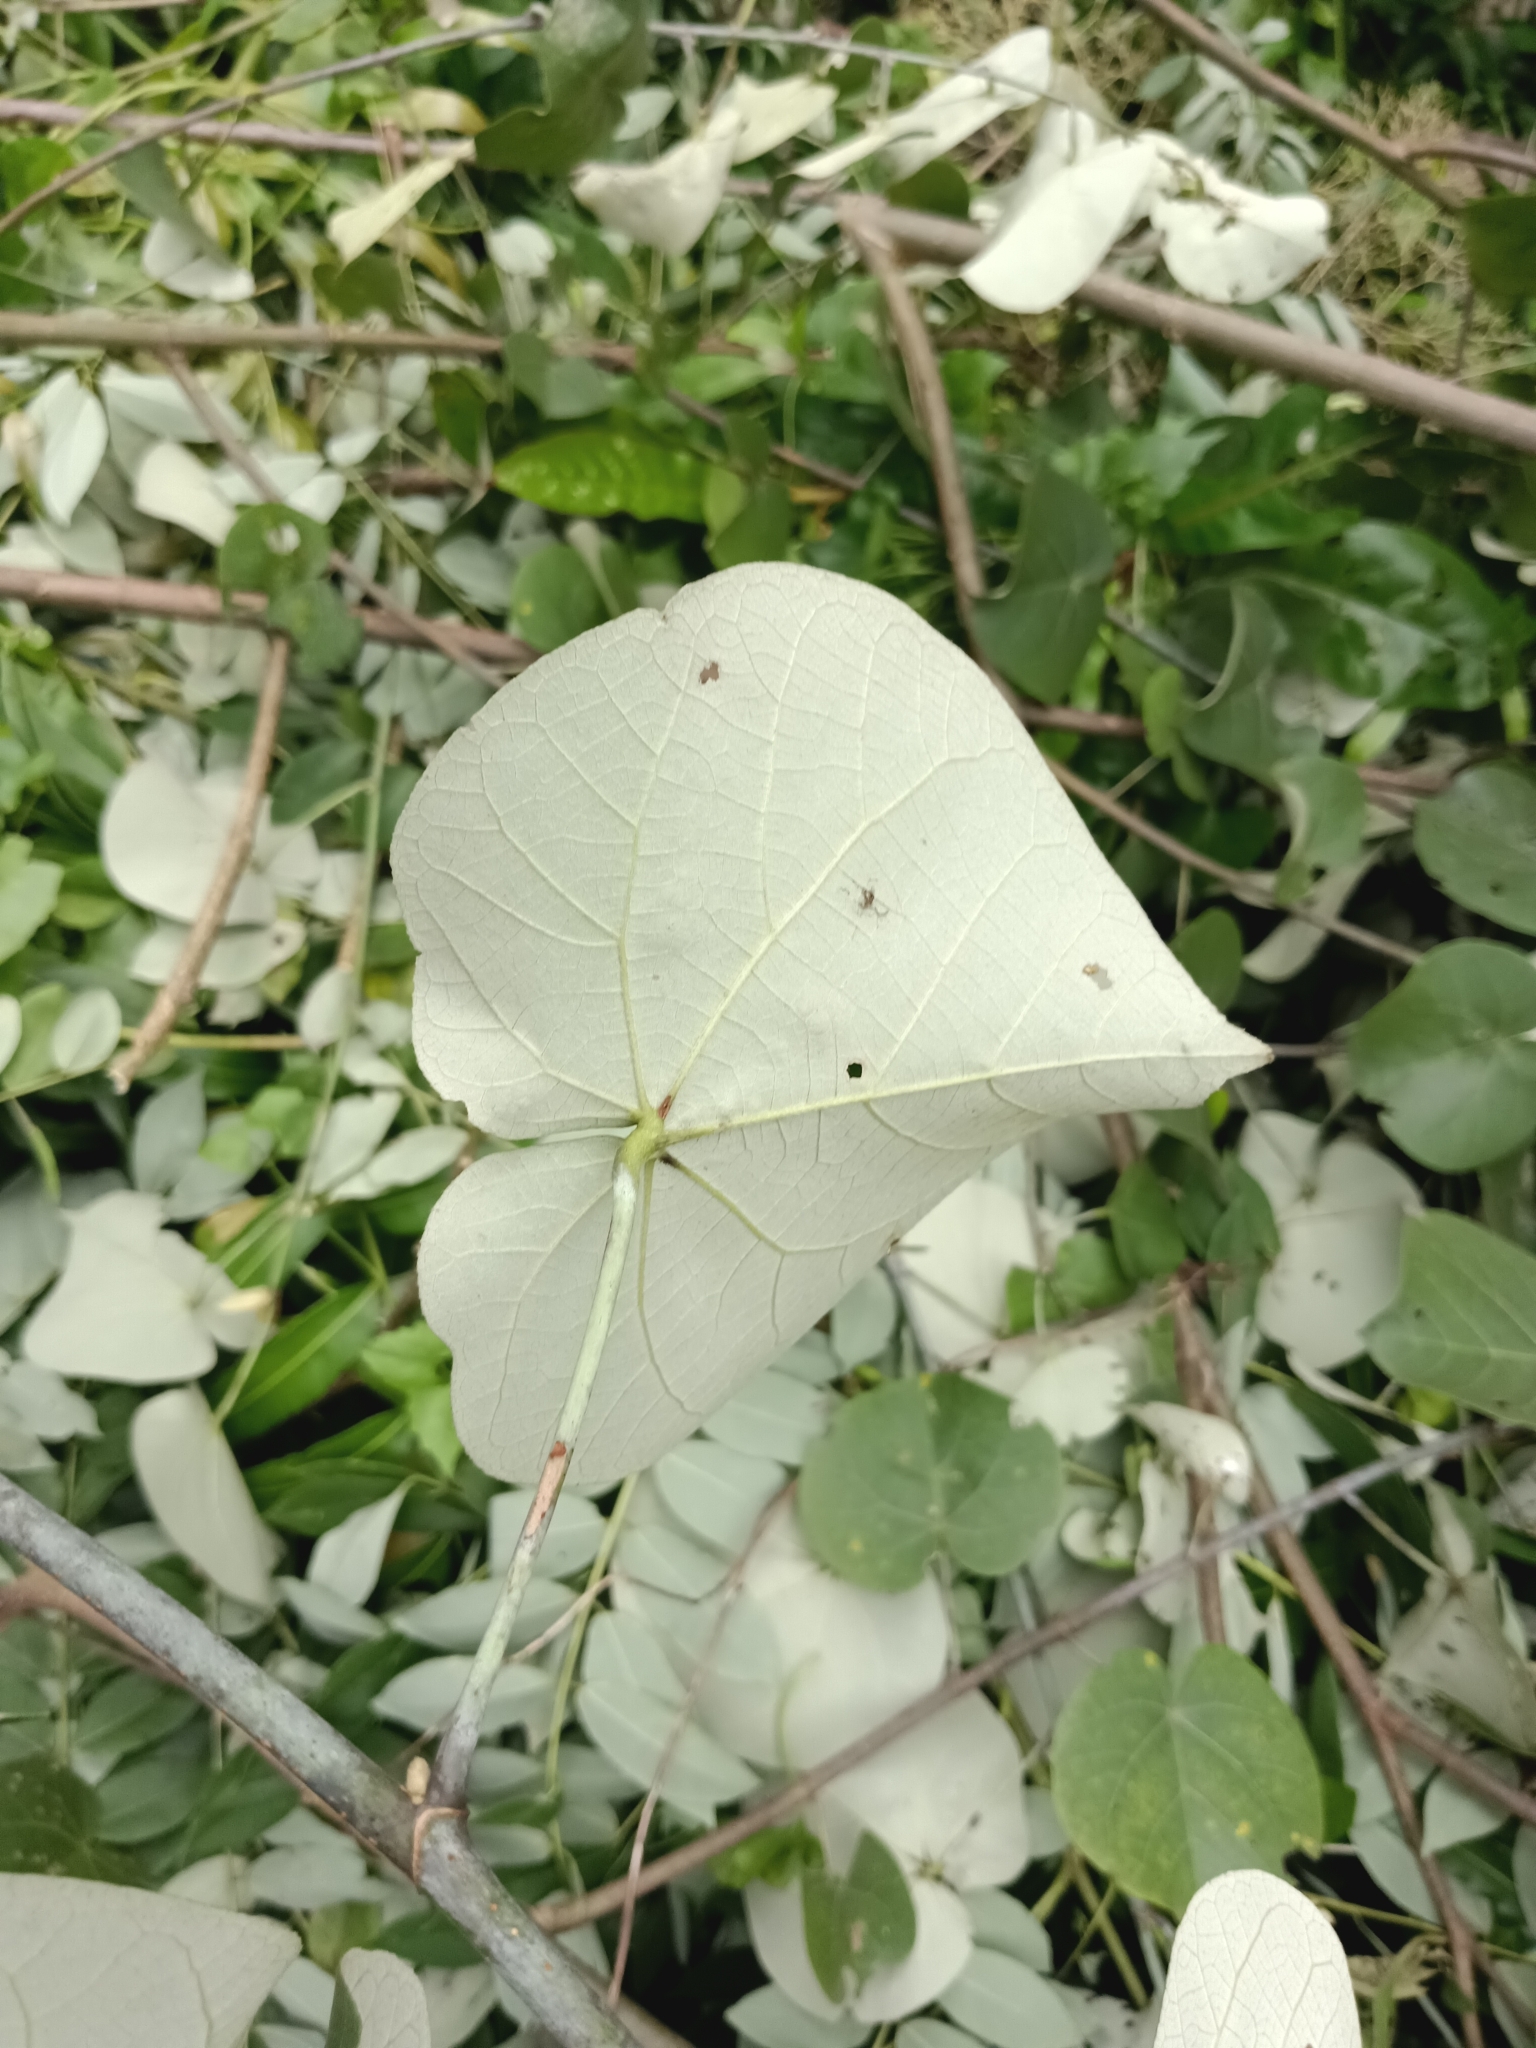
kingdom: Plantae
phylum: Tracheophyta
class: Magnoliopsida
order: Malvales
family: Malvaceae
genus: Talipariti
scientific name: Talipariti tiliaceum
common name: Sea hibiscus
